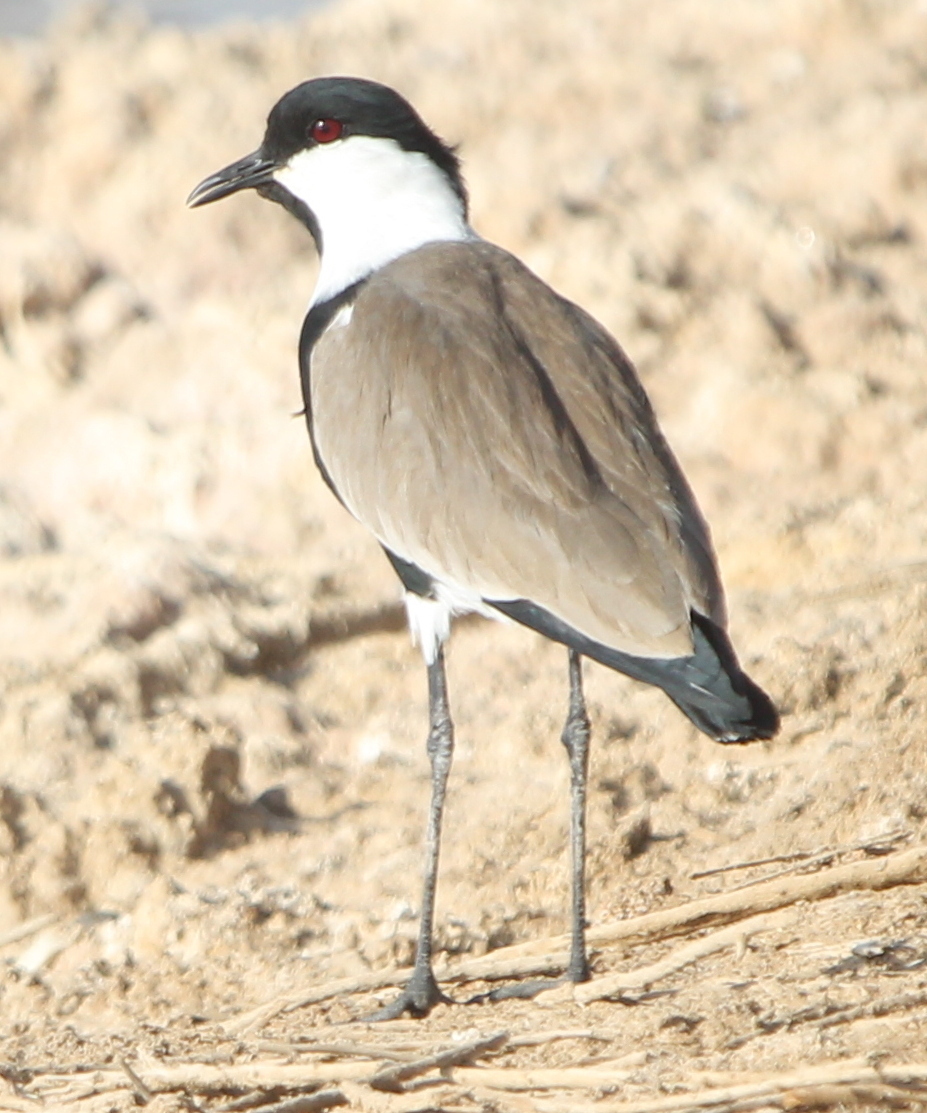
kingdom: Animalia
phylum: Chordata
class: Aves
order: Charadriiformes
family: Charadriidae
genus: Vanellus
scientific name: Vanellus spinosus
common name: Spur-winged lapwing
